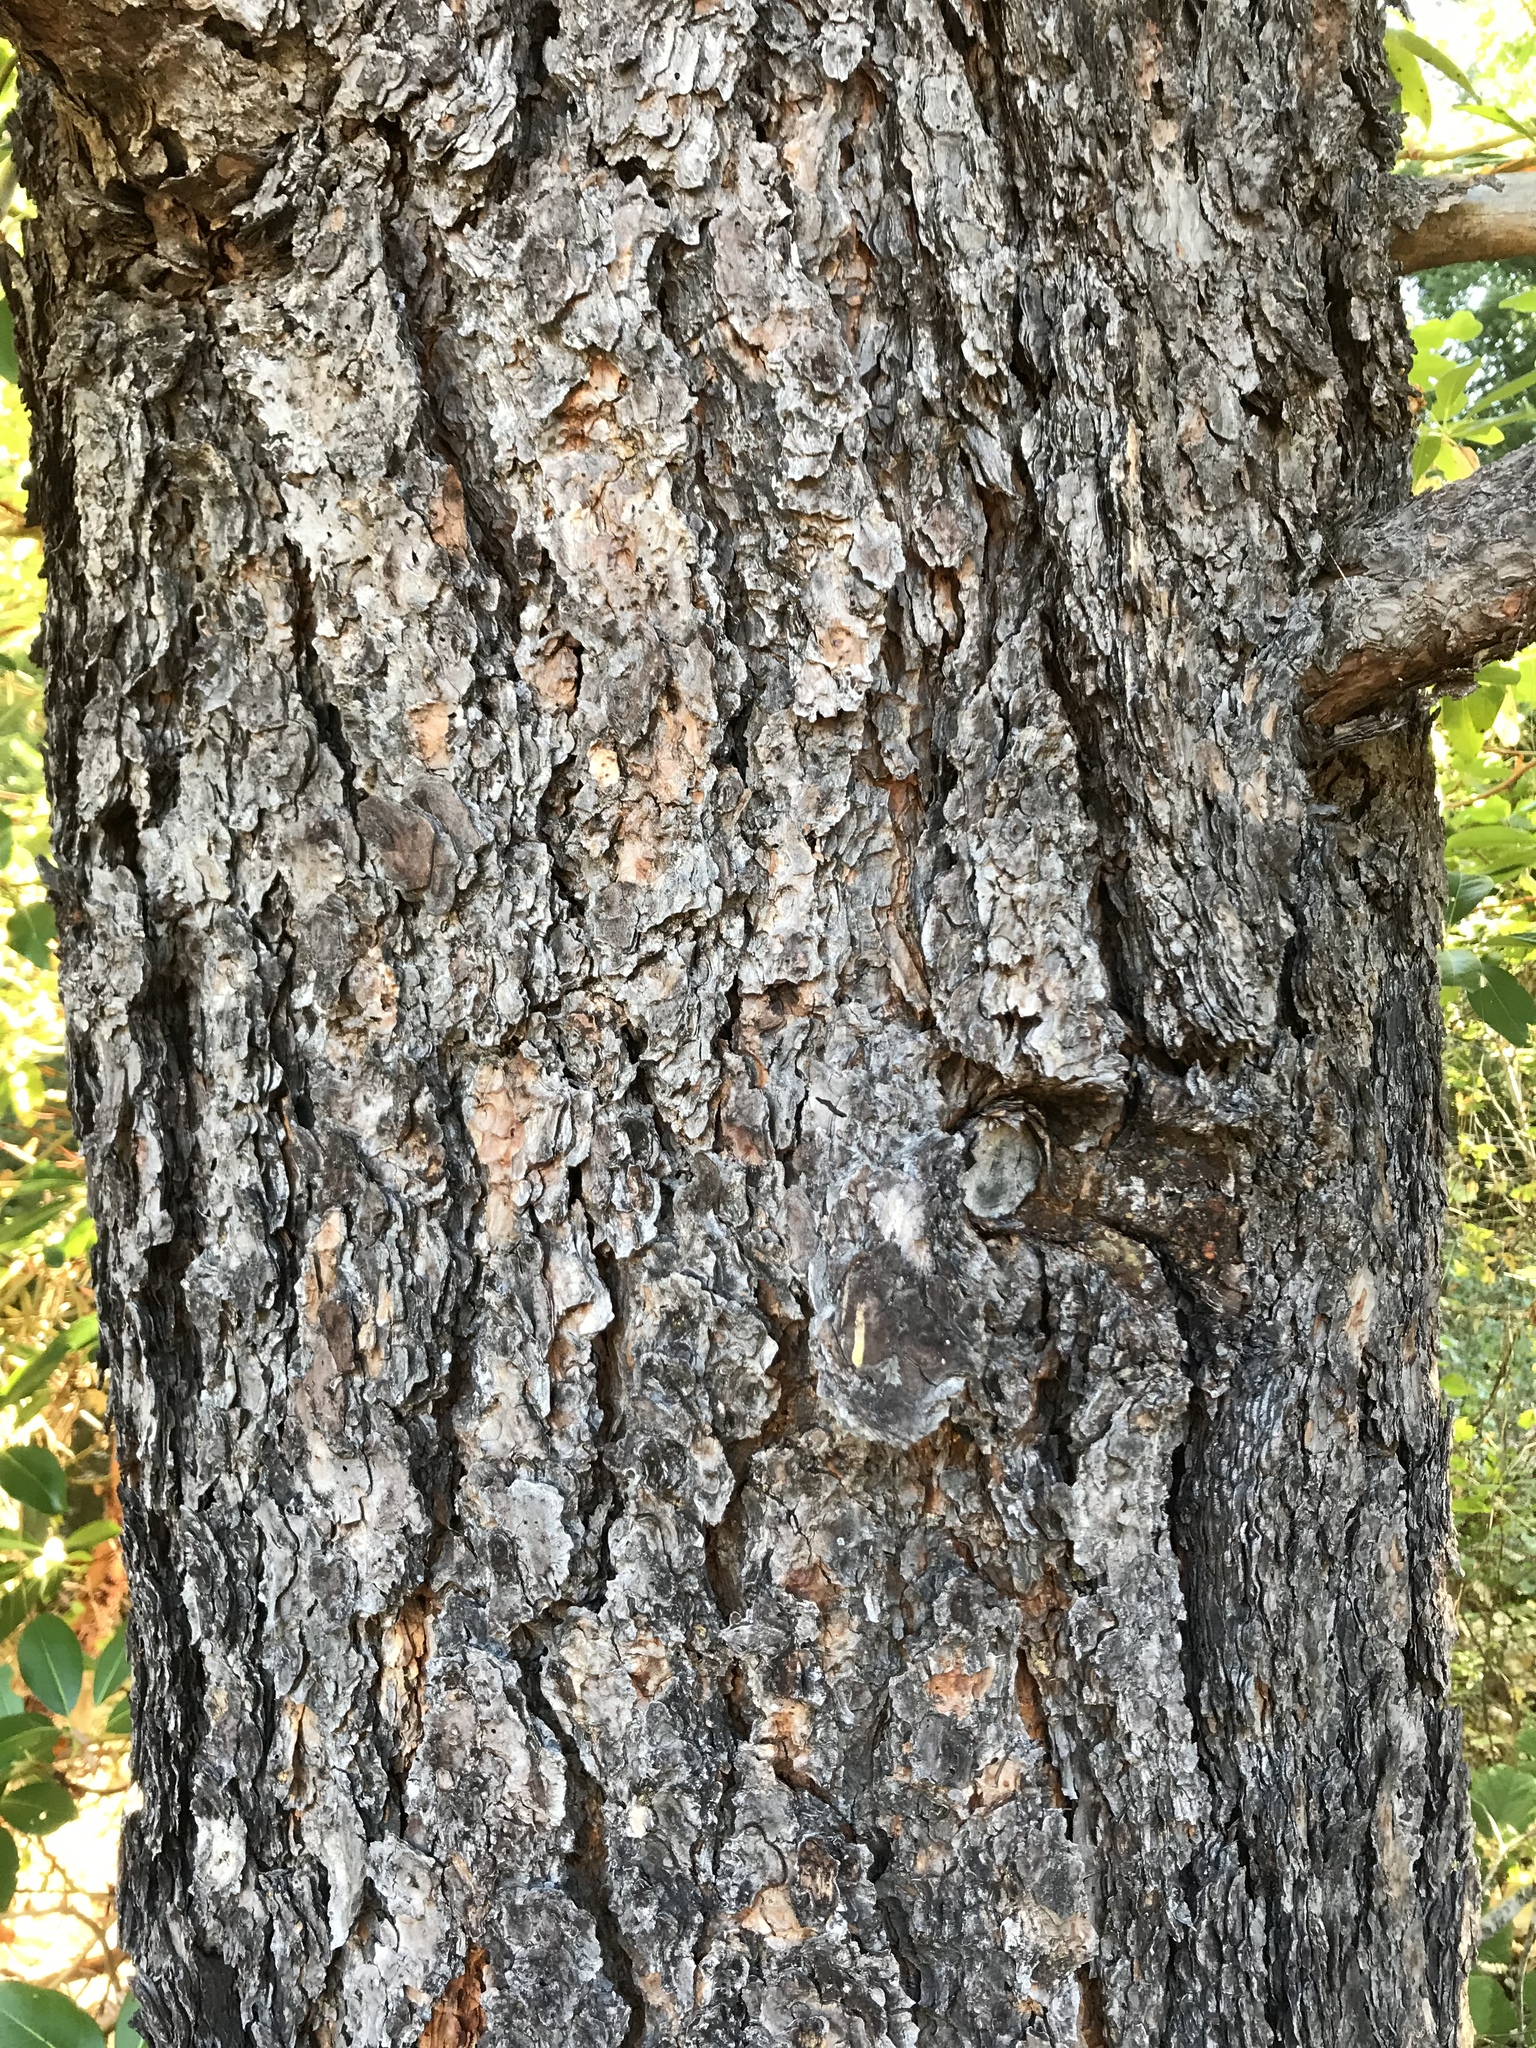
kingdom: Plantae
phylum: Tracheophyta
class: Pinopsida
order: Pinales
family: Pinaceae
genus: Pinus
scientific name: Pinus ponderosa
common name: Western yellow-pine
